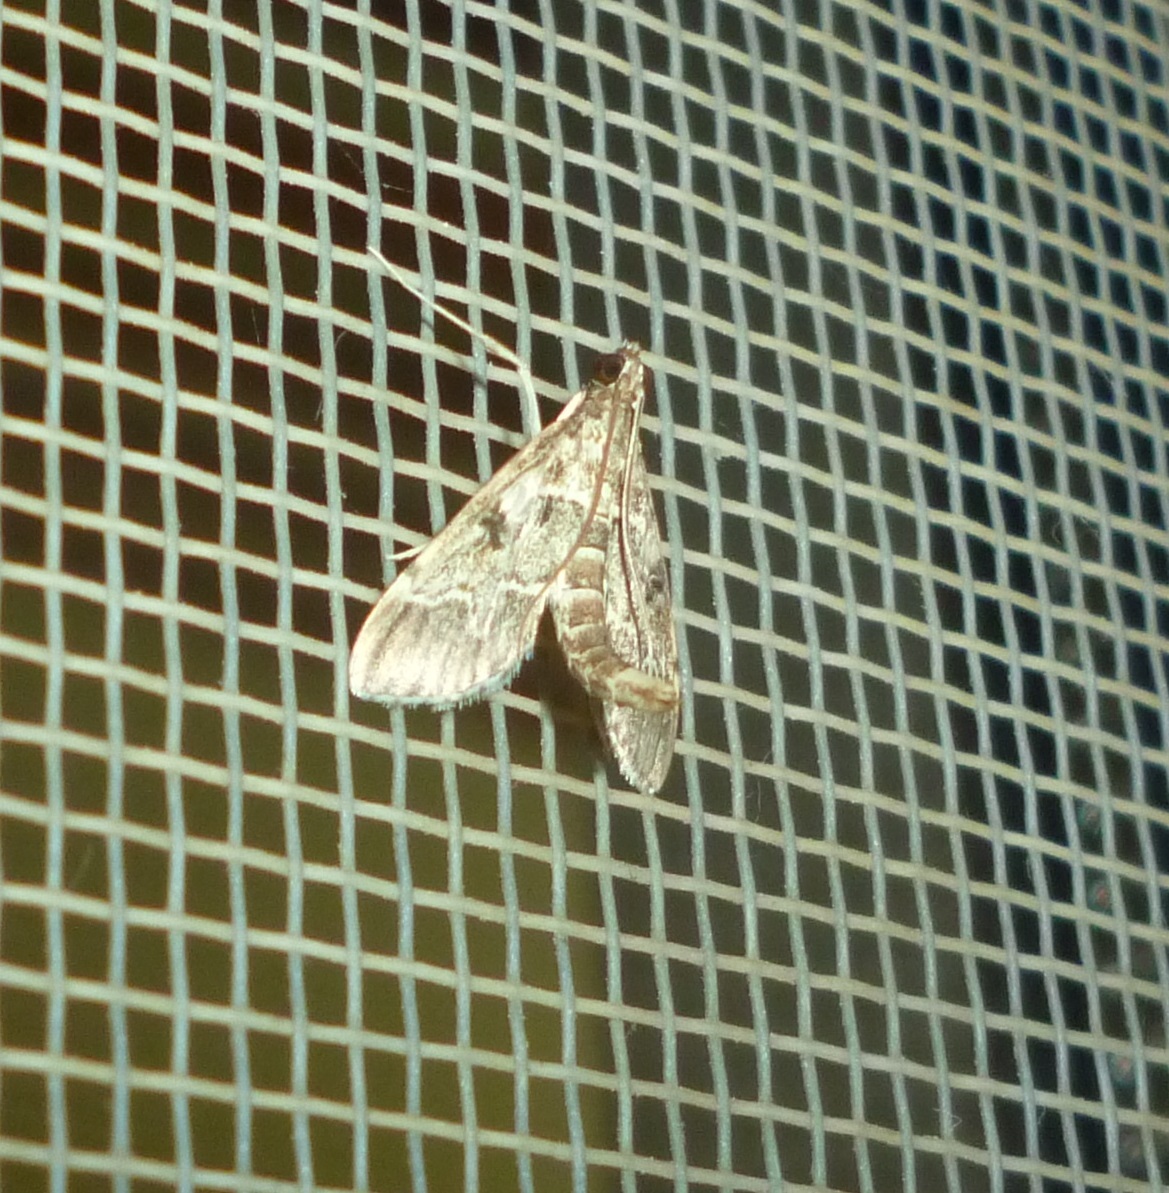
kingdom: Animalia
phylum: Arthropoda
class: Insecta
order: Lepidoptera
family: Crambidae
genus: Duponchelia
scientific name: Duponchelia fovealis
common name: Crambid moth
